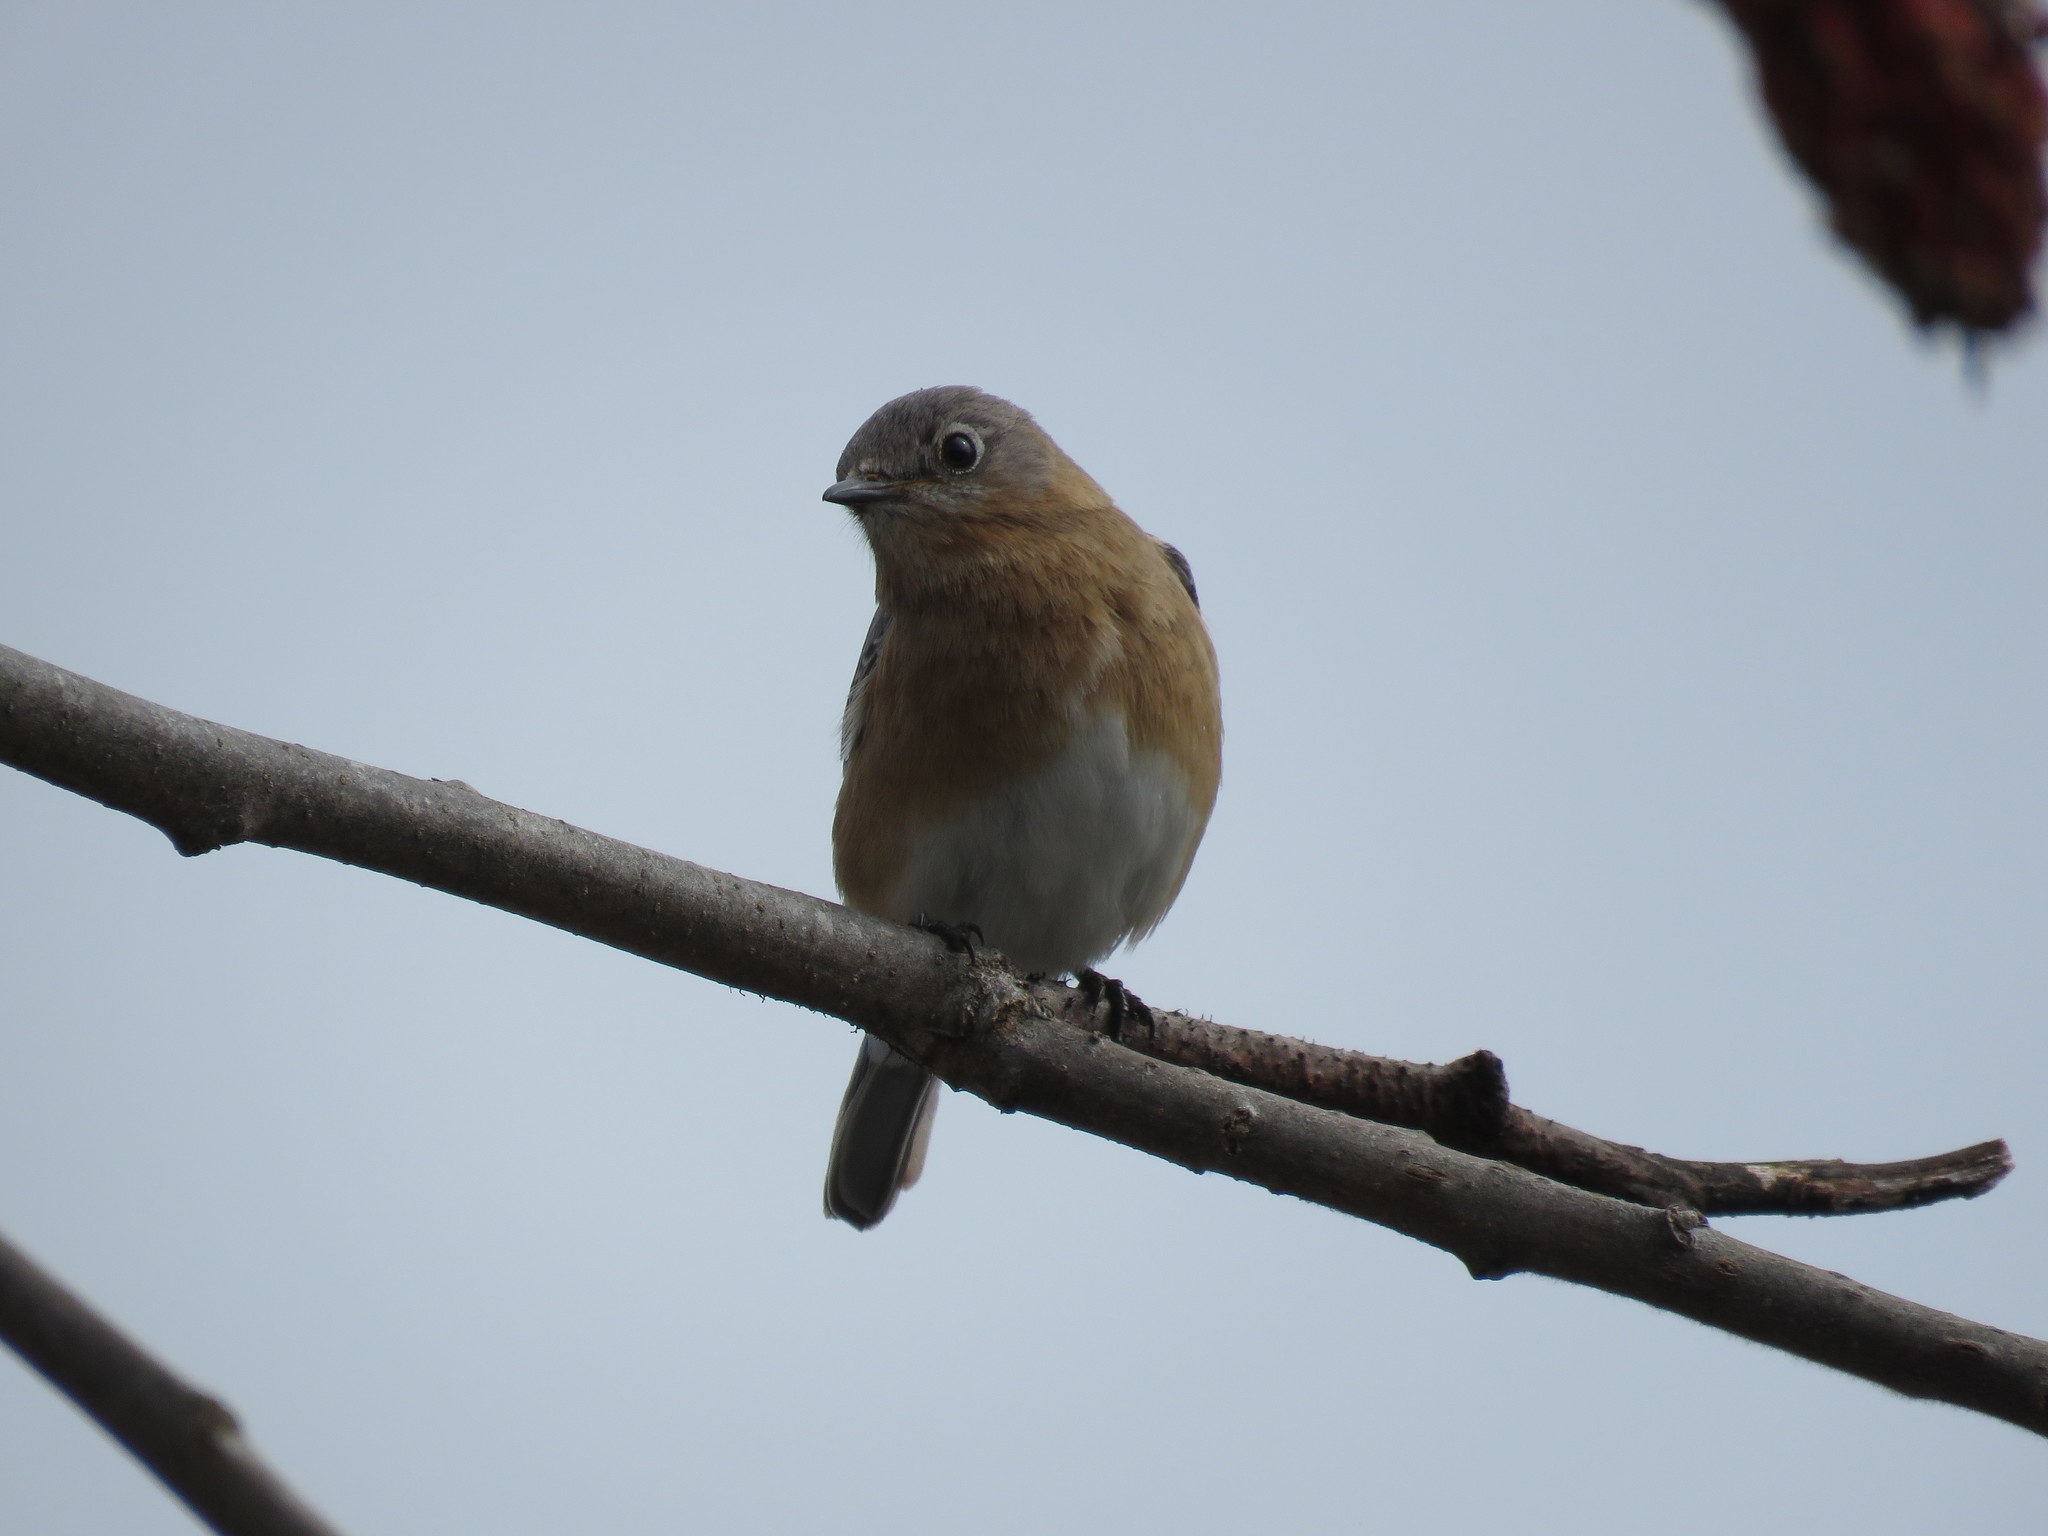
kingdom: Animalia
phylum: Chordata
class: Aves
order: Passeriformes
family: Turdidae
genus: Sialia
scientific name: Sialia sialis
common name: Eastern bluebird
